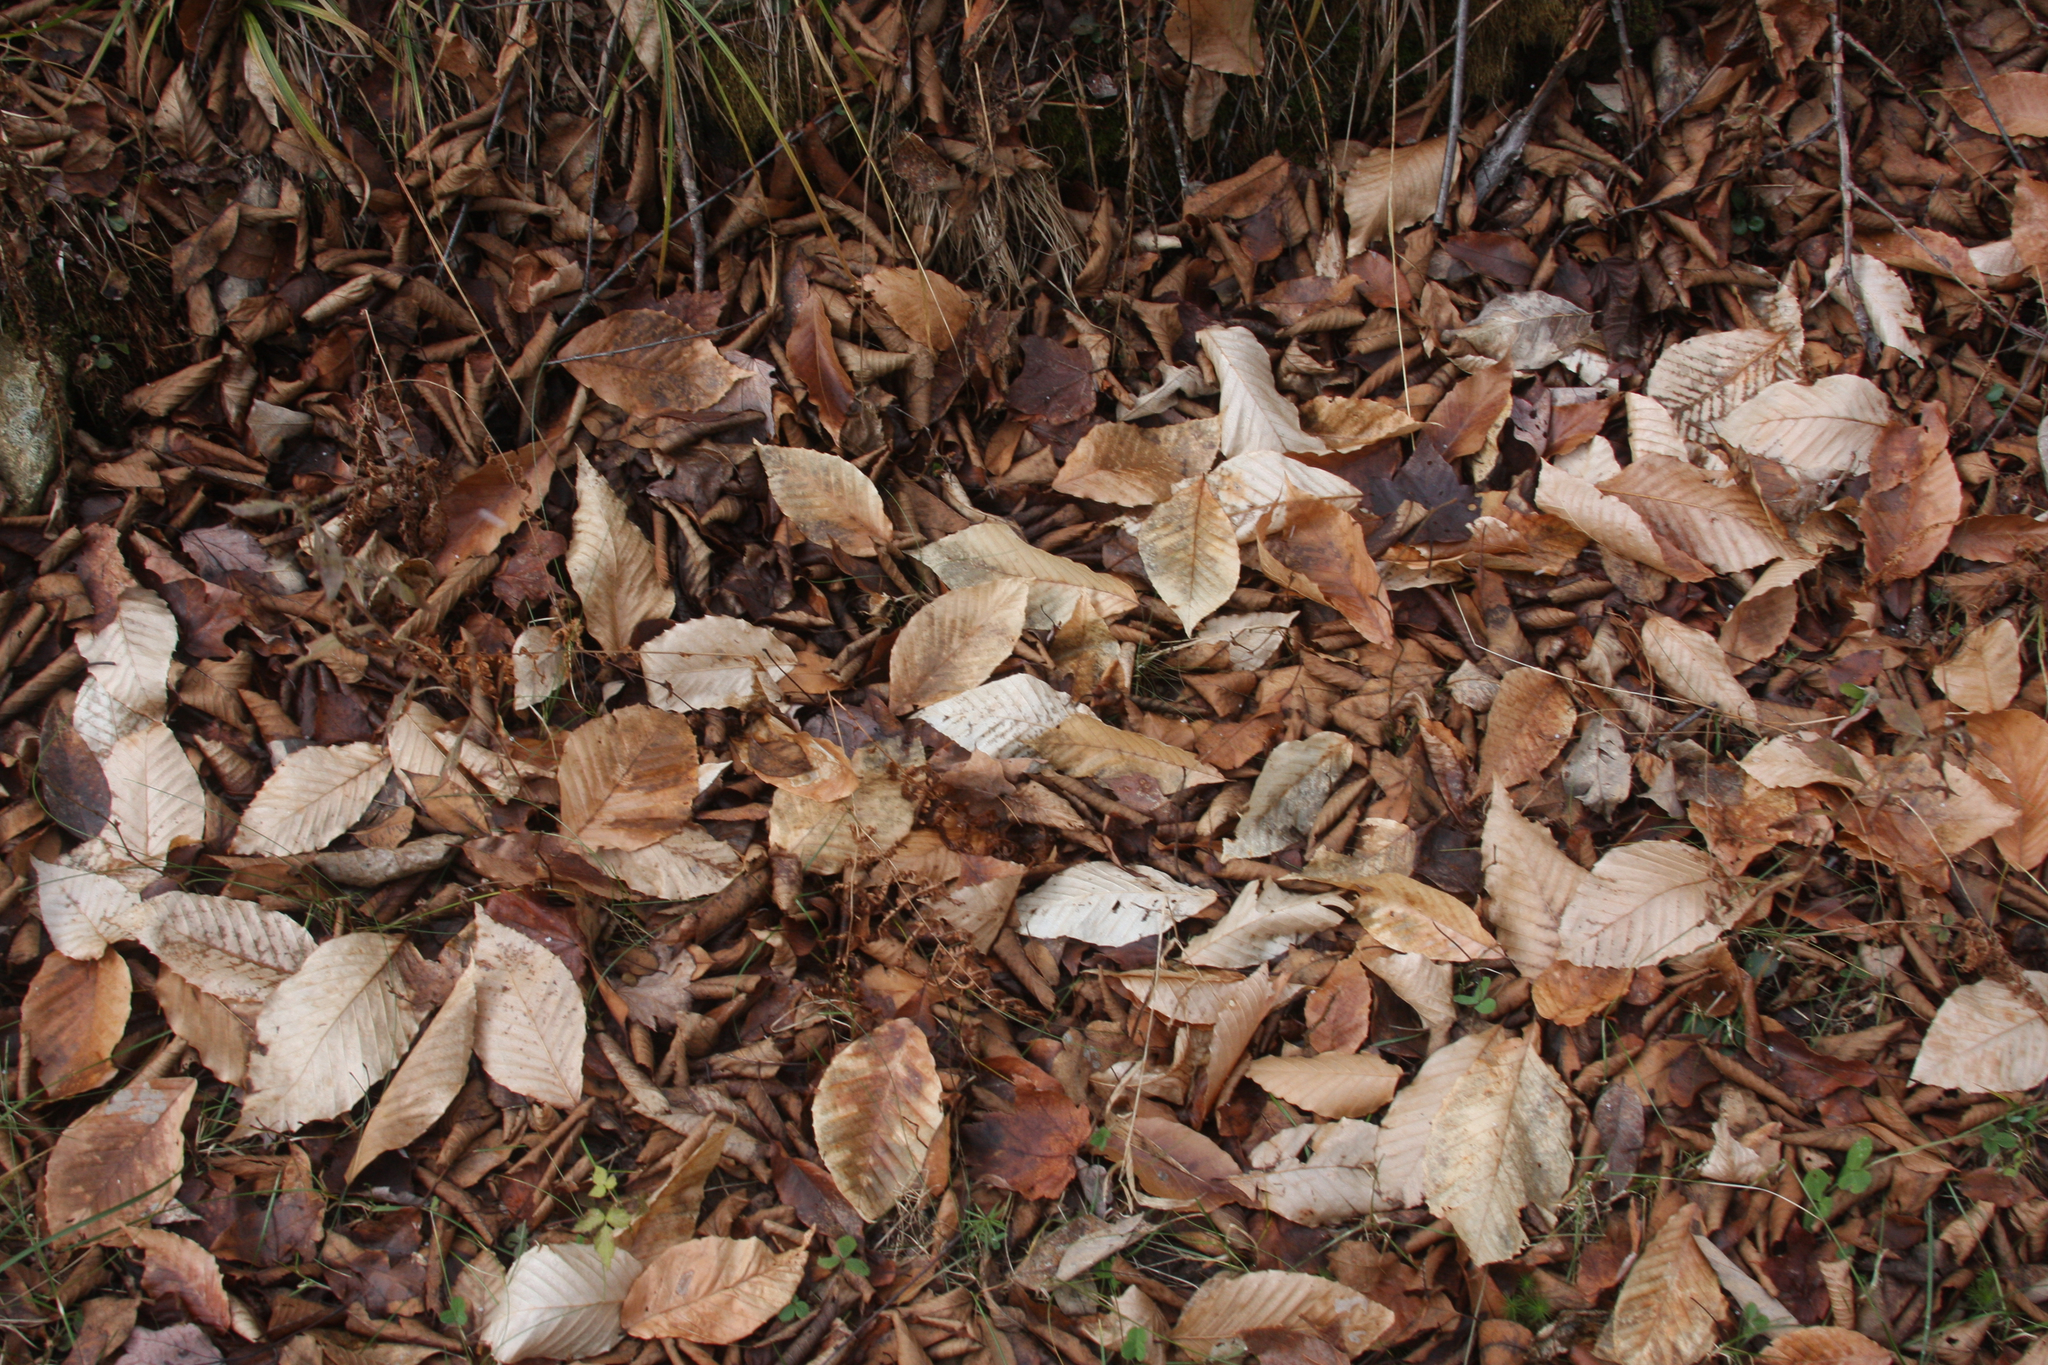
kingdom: Plantae
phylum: Tracheophyta
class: Magnoliopsida
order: Fagales
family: Fagaceae
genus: Fagus
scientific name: Fagus grandifolia
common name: American beech
